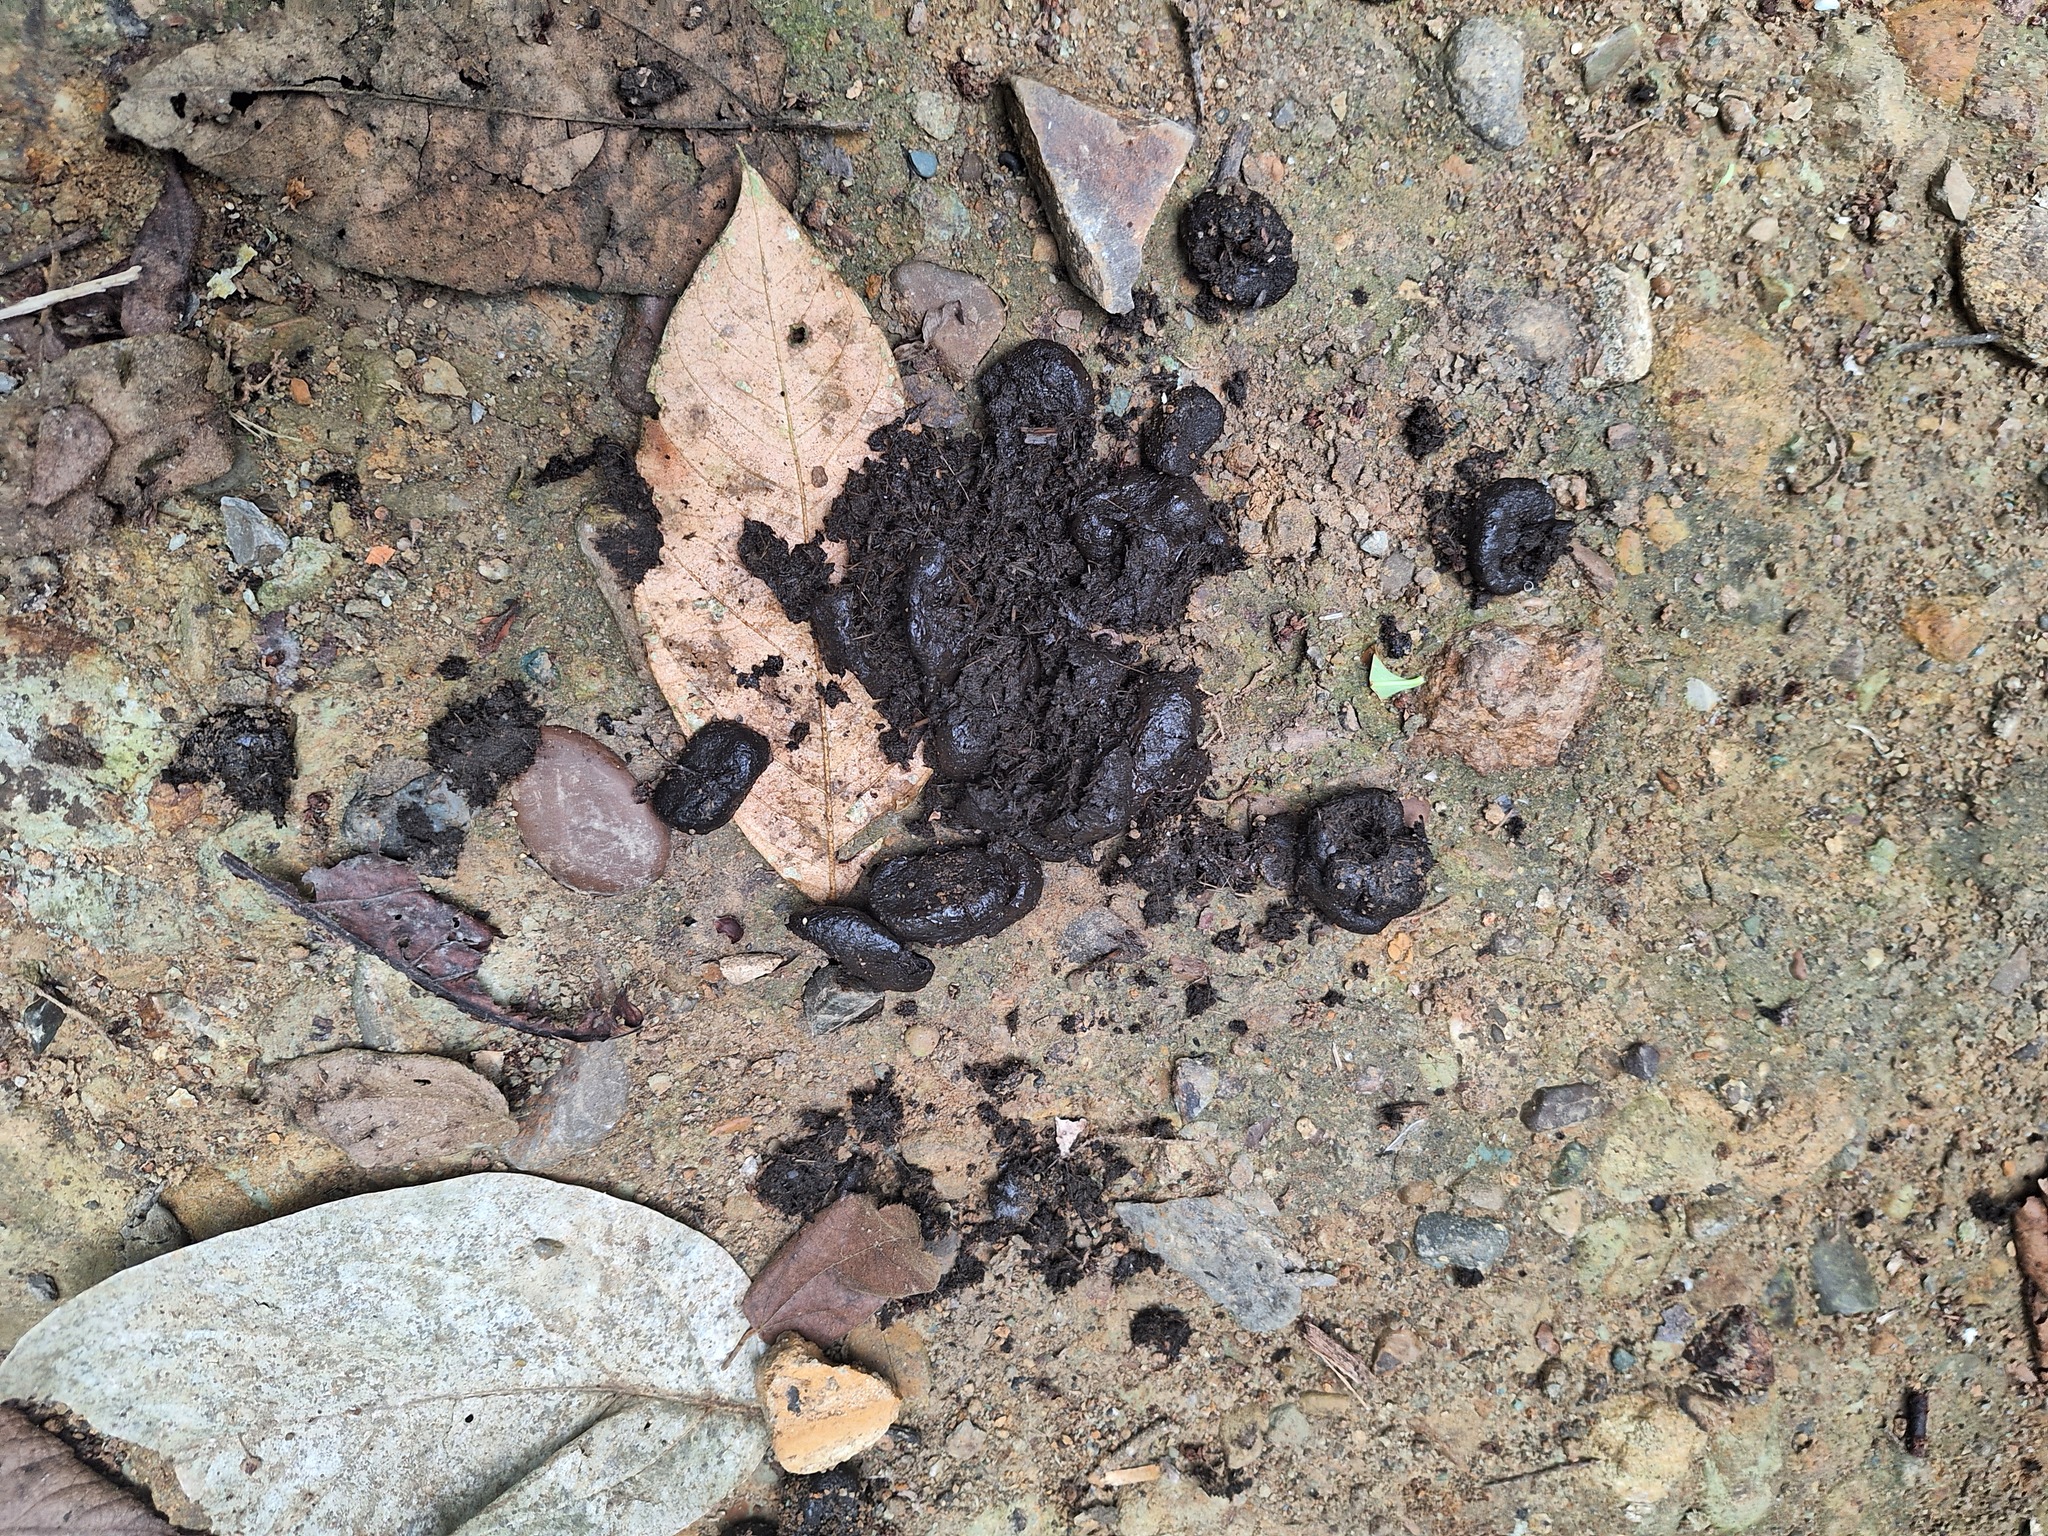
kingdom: Animalia
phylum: Chordata
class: Mammalia
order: Artiodactyla
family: Cervidae
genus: Odocoileus
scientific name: Odocoileus virginianus
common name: White-tailed deer
